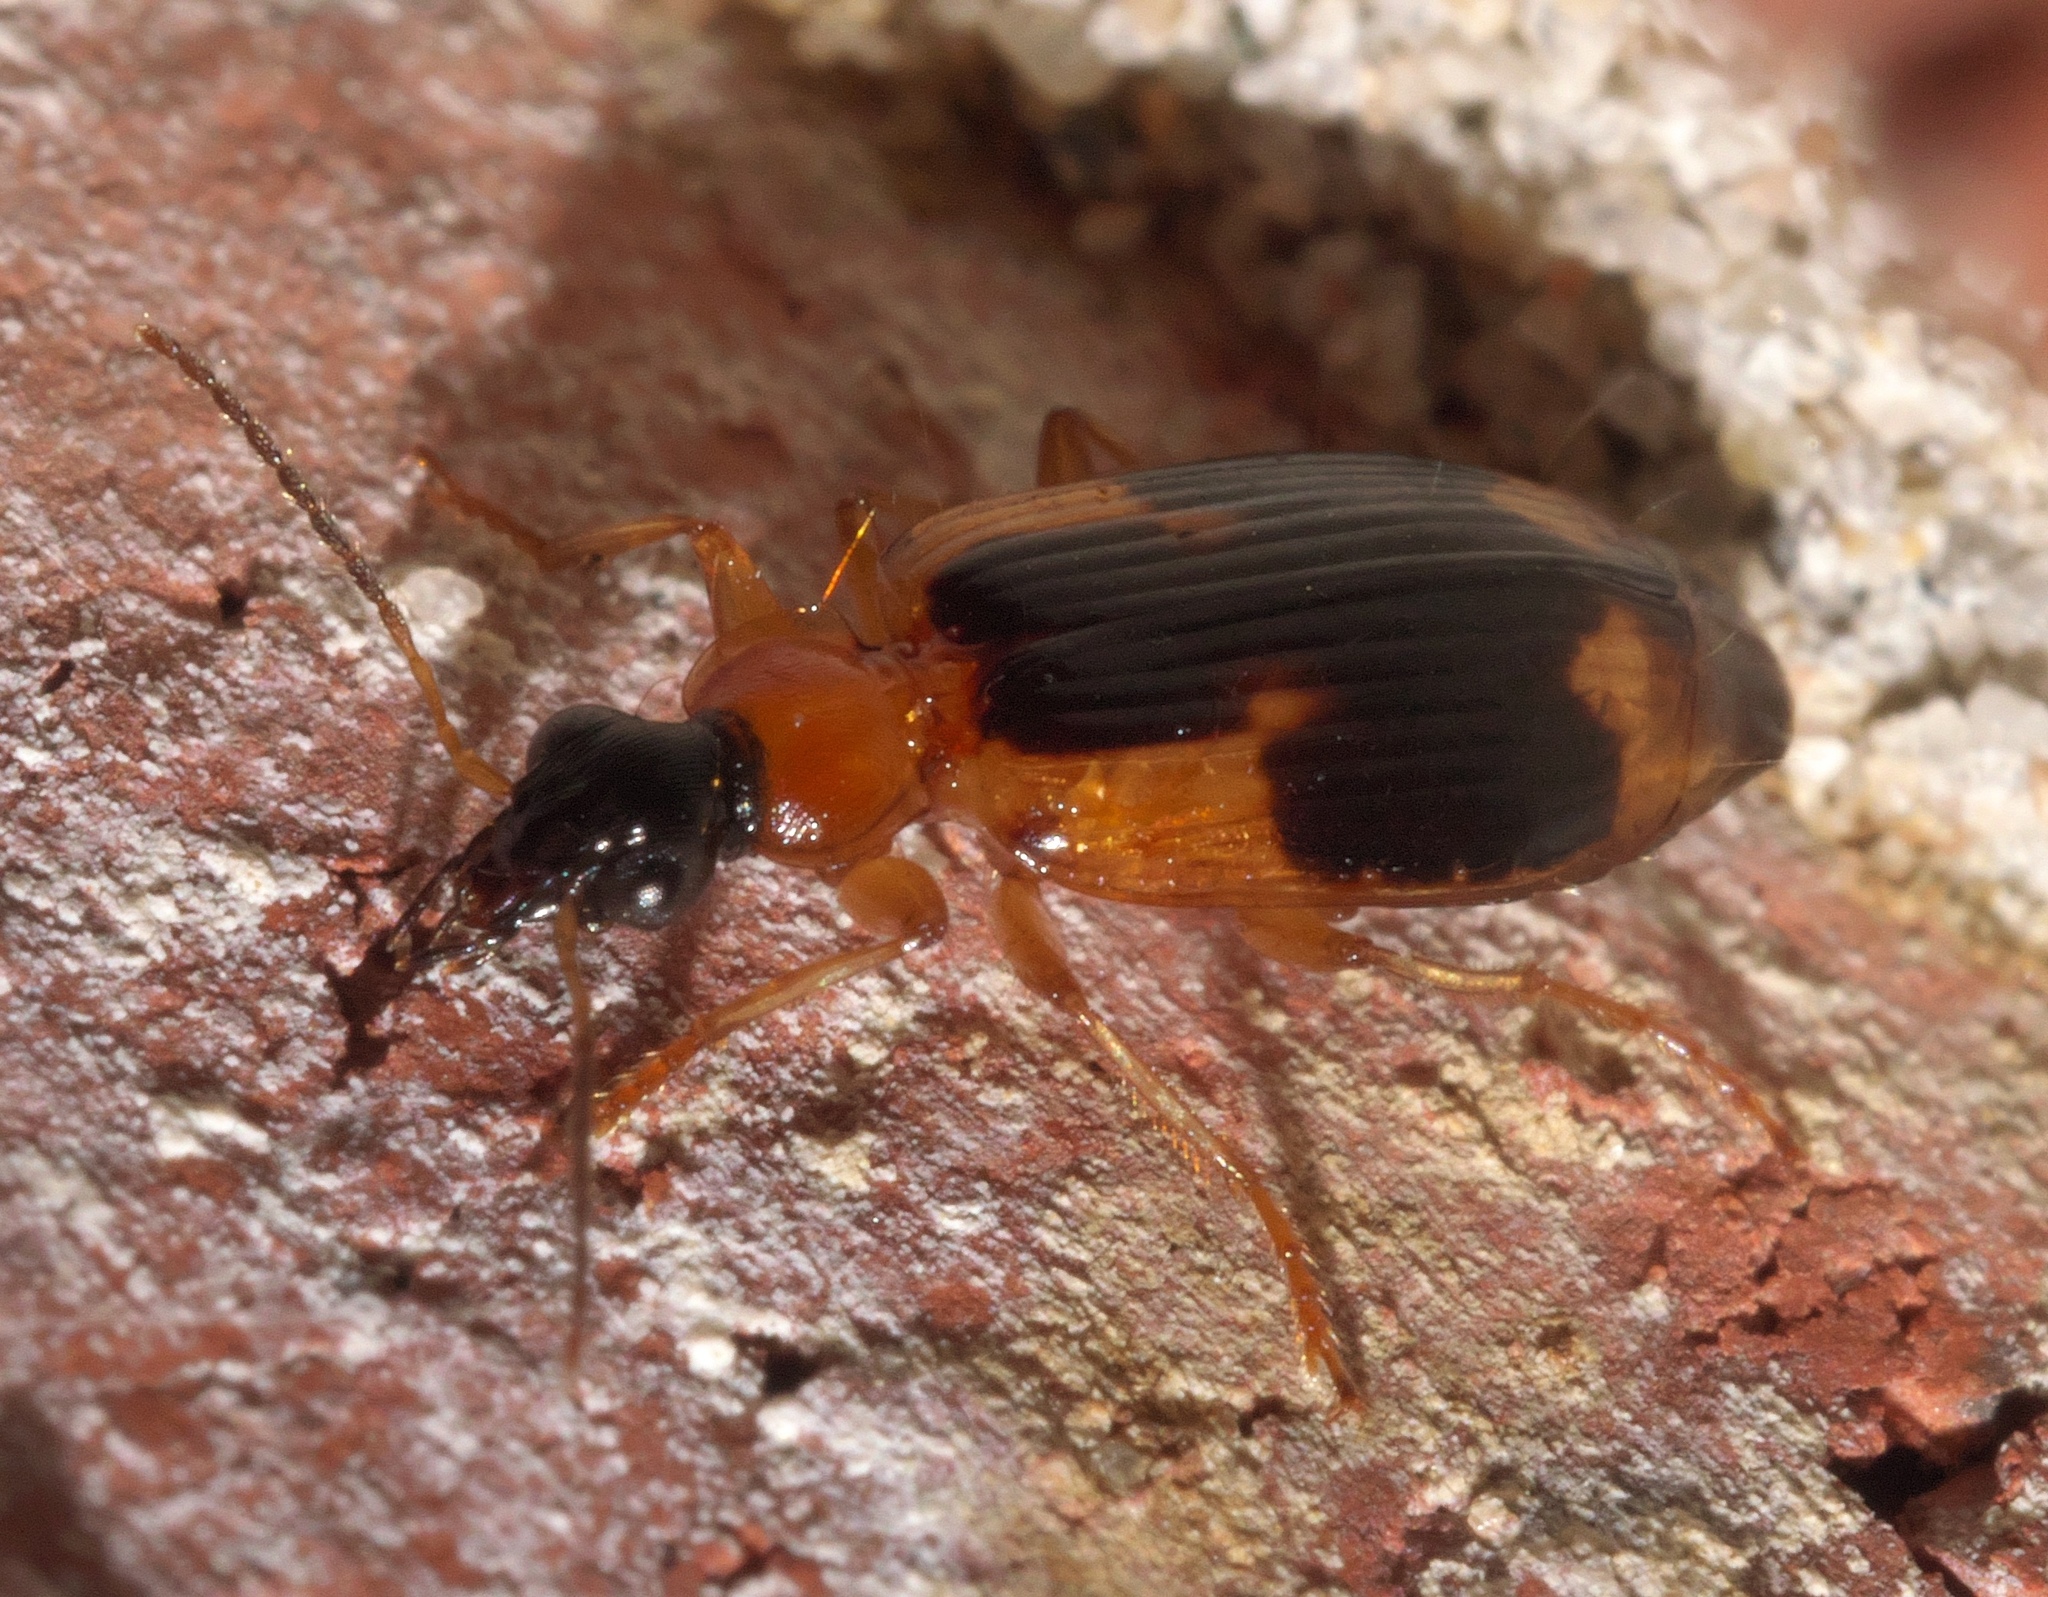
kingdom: Animalia
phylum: Arthropoda
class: Insecta
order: Coleoptera
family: Carabidae
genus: Lebia
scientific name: Lebia analis
